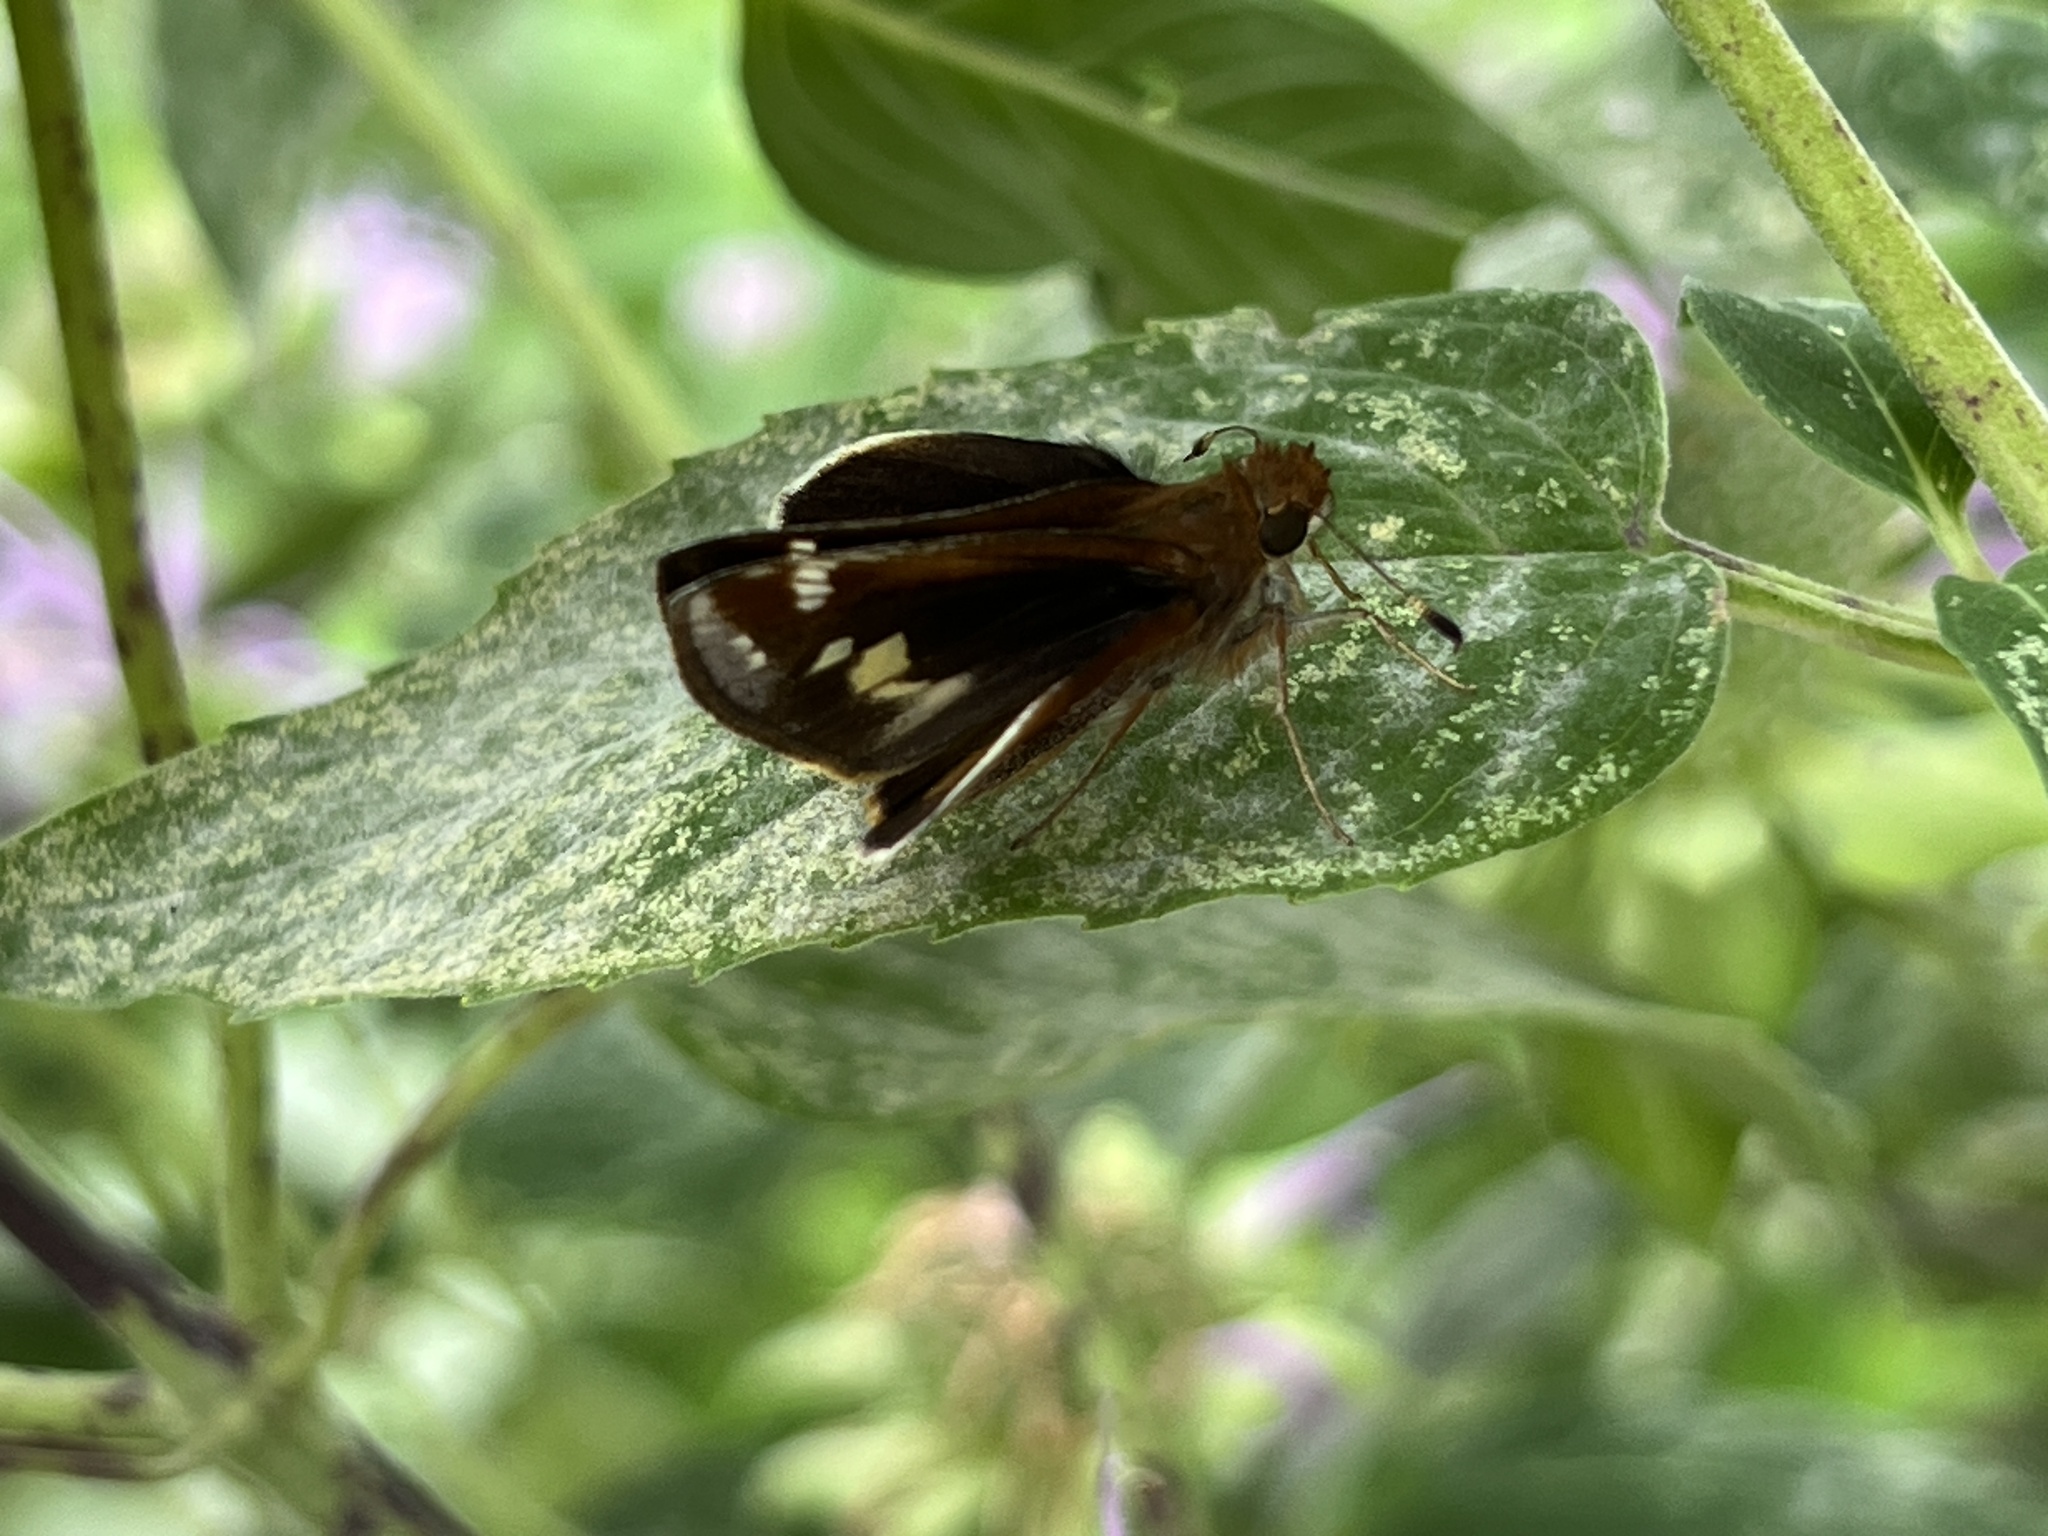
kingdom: Animalia
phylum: Arthropoda
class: Insecta
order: Lepidoptera
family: Hesperiidae
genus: Lon
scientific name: Lon zabulon
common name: Zabulon skipper
